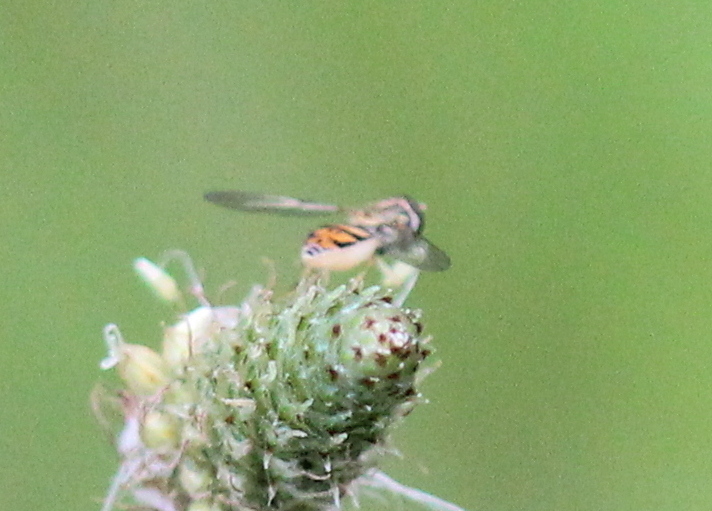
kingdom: Animalia
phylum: Arthropoda
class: Insecta
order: Diptera
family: Syrphidae
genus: Toxomerus
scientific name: Toxomerus marginatus
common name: Syrphid fly
